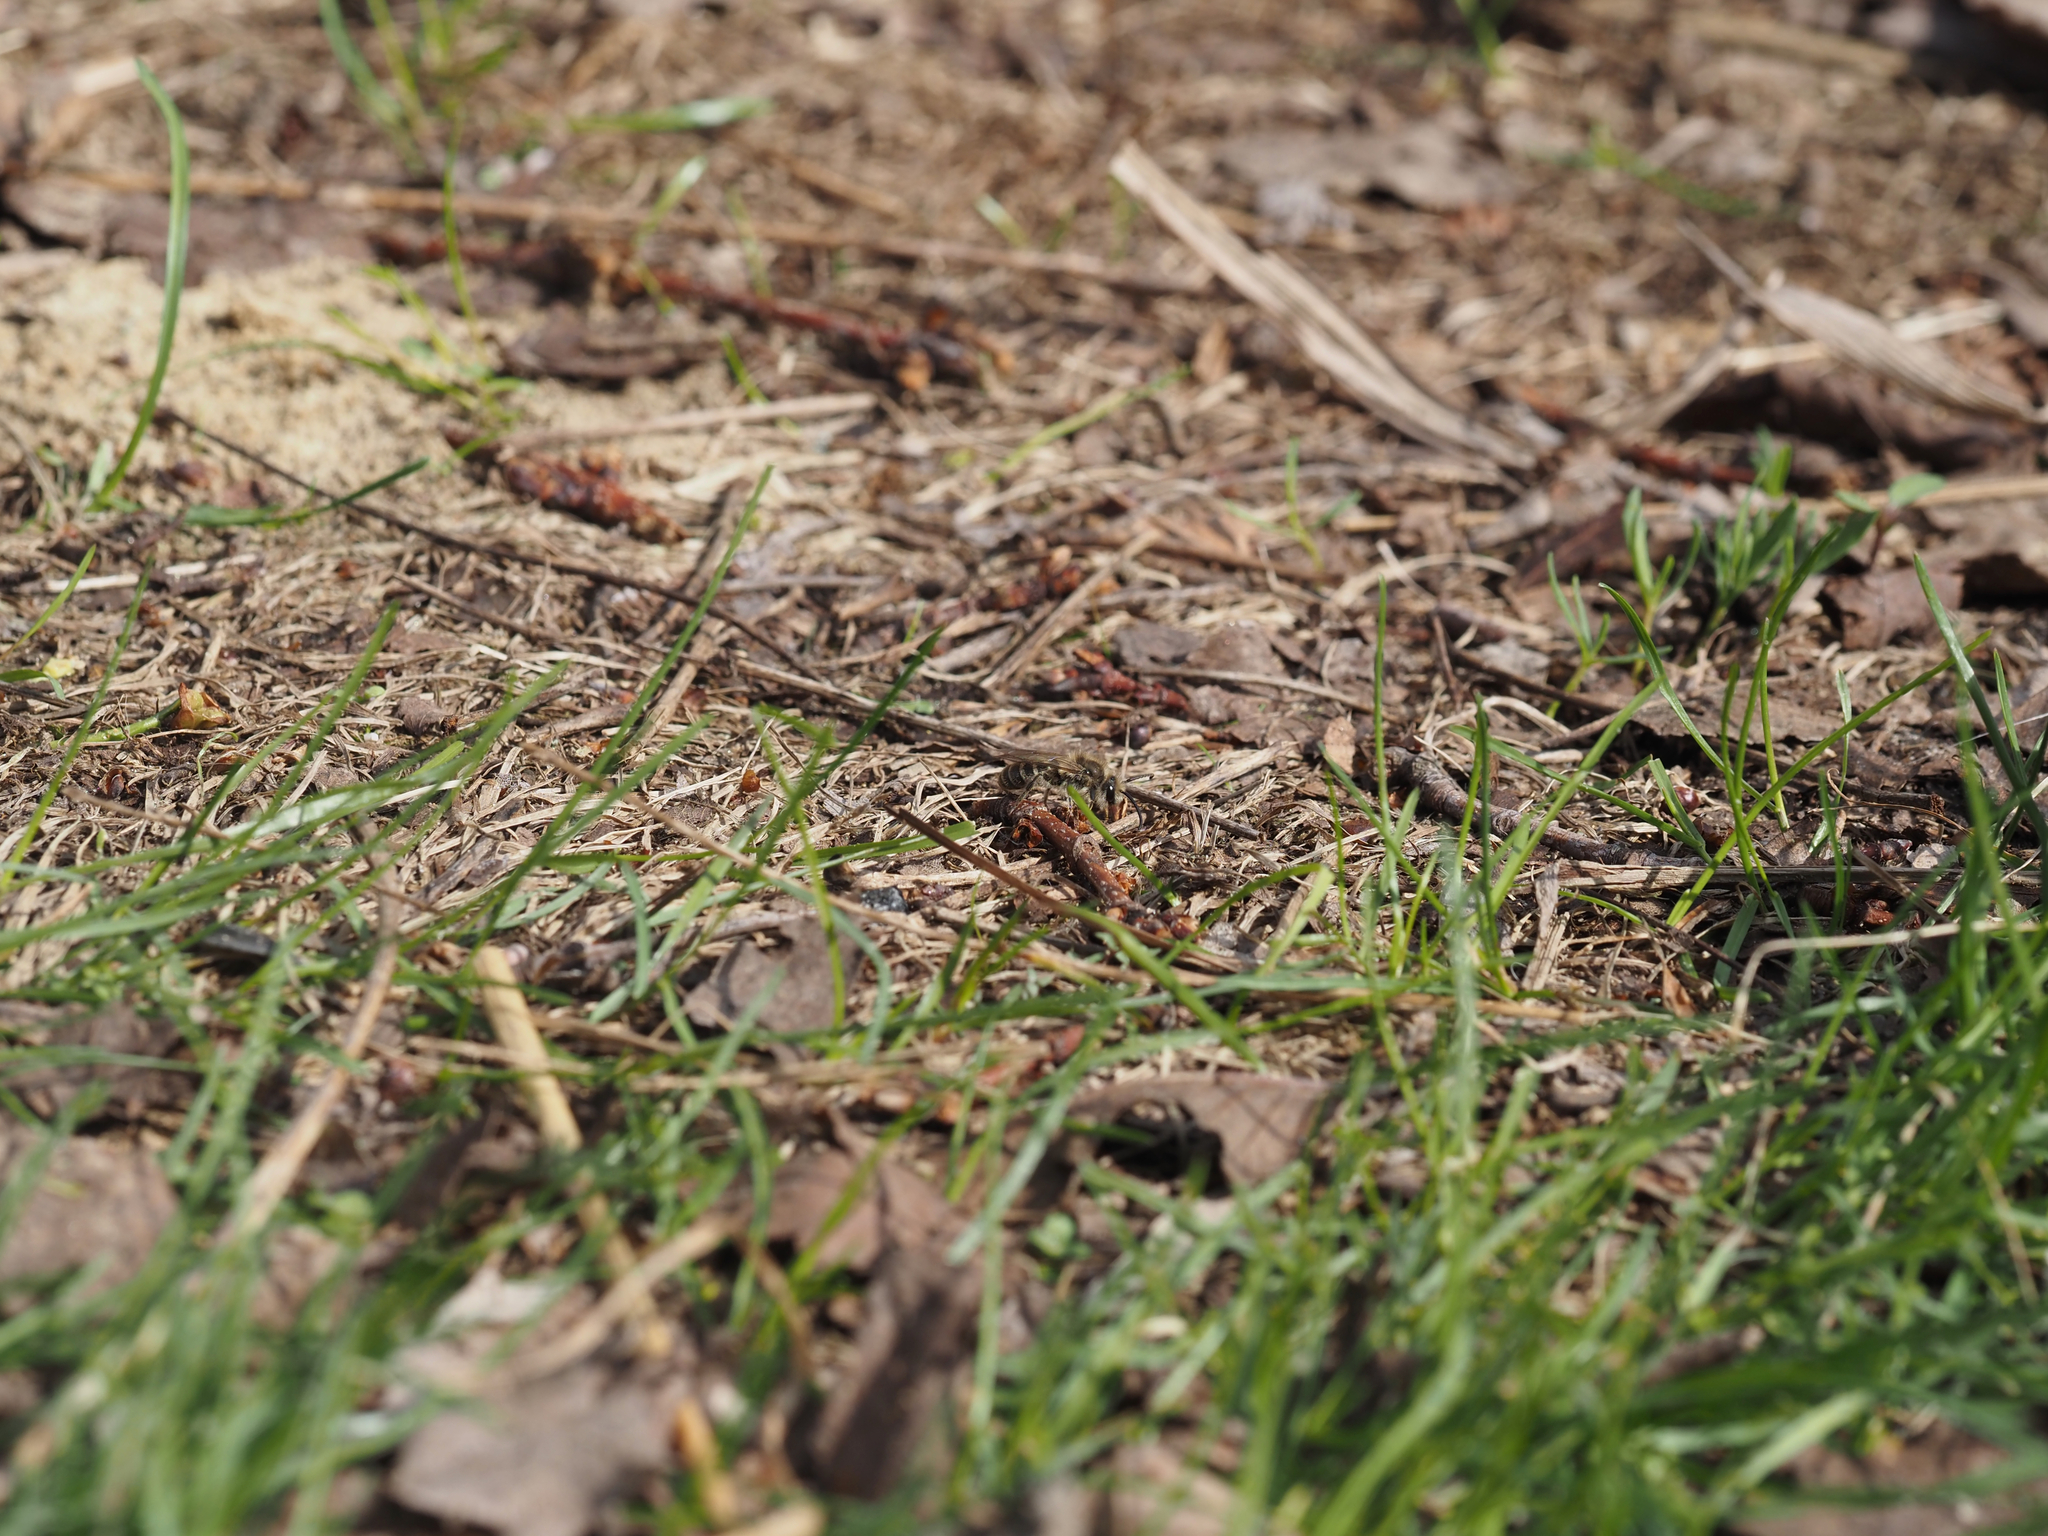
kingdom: Animalia
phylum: Arthropoda
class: Insecta
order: Hymenoptera
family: Colletidae
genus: Colletes
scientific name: Colletes inaequalis
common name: Unequal cellophane bee
